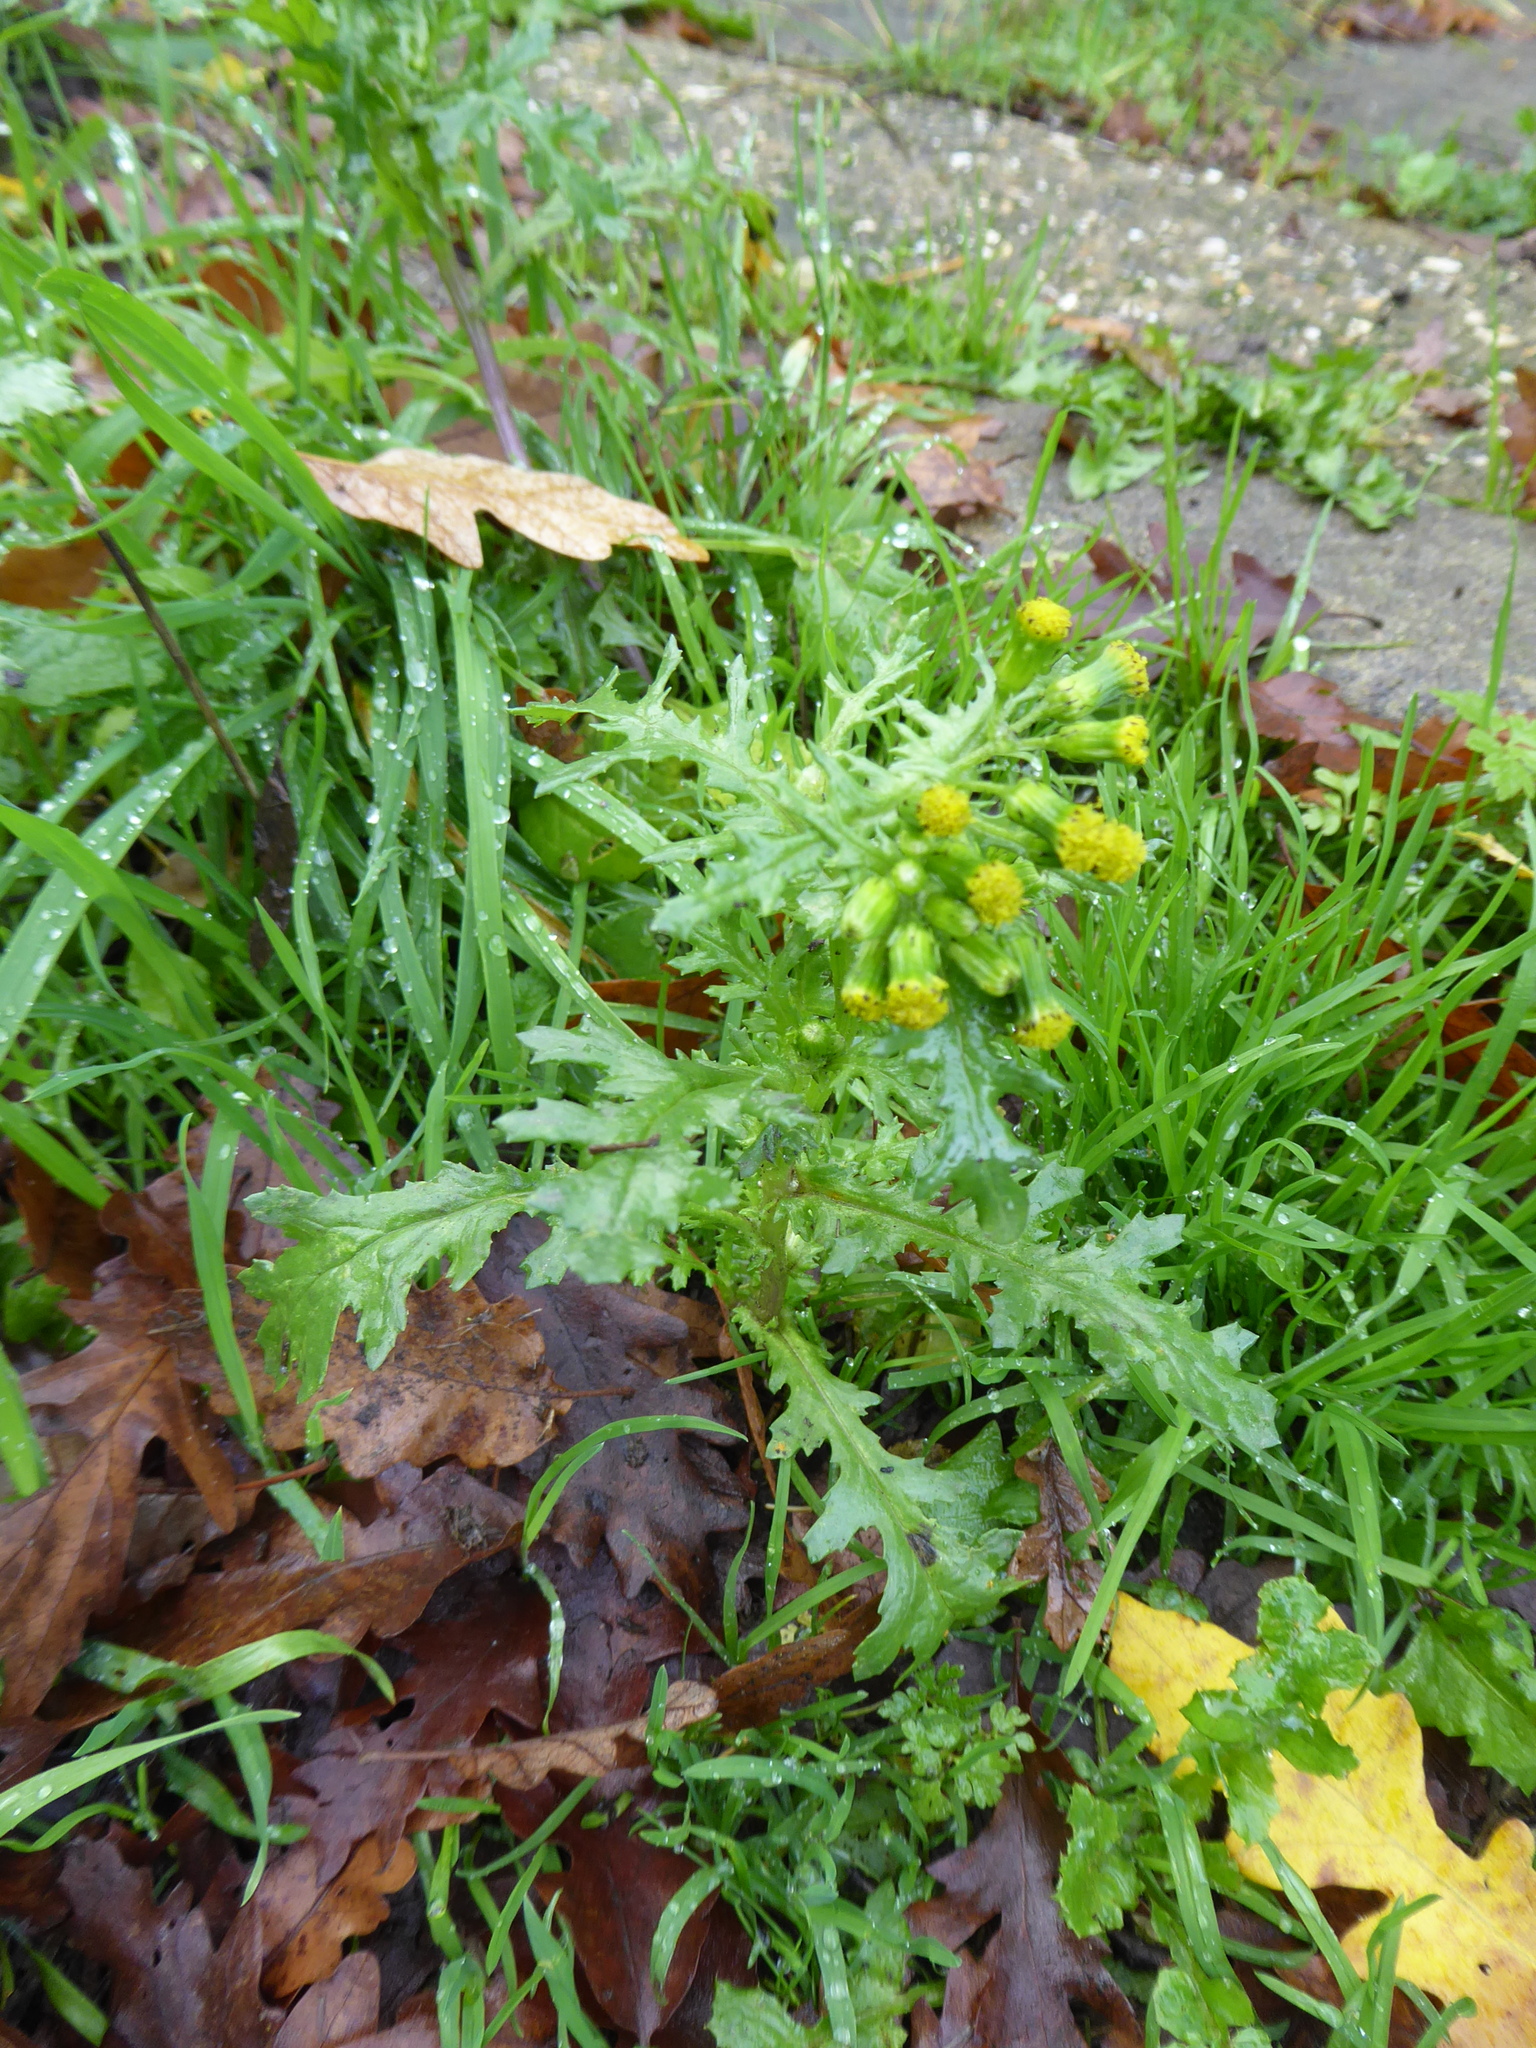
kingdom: Plantae
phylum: Tracheophyta
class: Magnoliopsida
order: Asterales
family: Asteraceae
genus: Senecio
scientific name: Senecio vulgaris
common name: Old-man-in-the-spring
